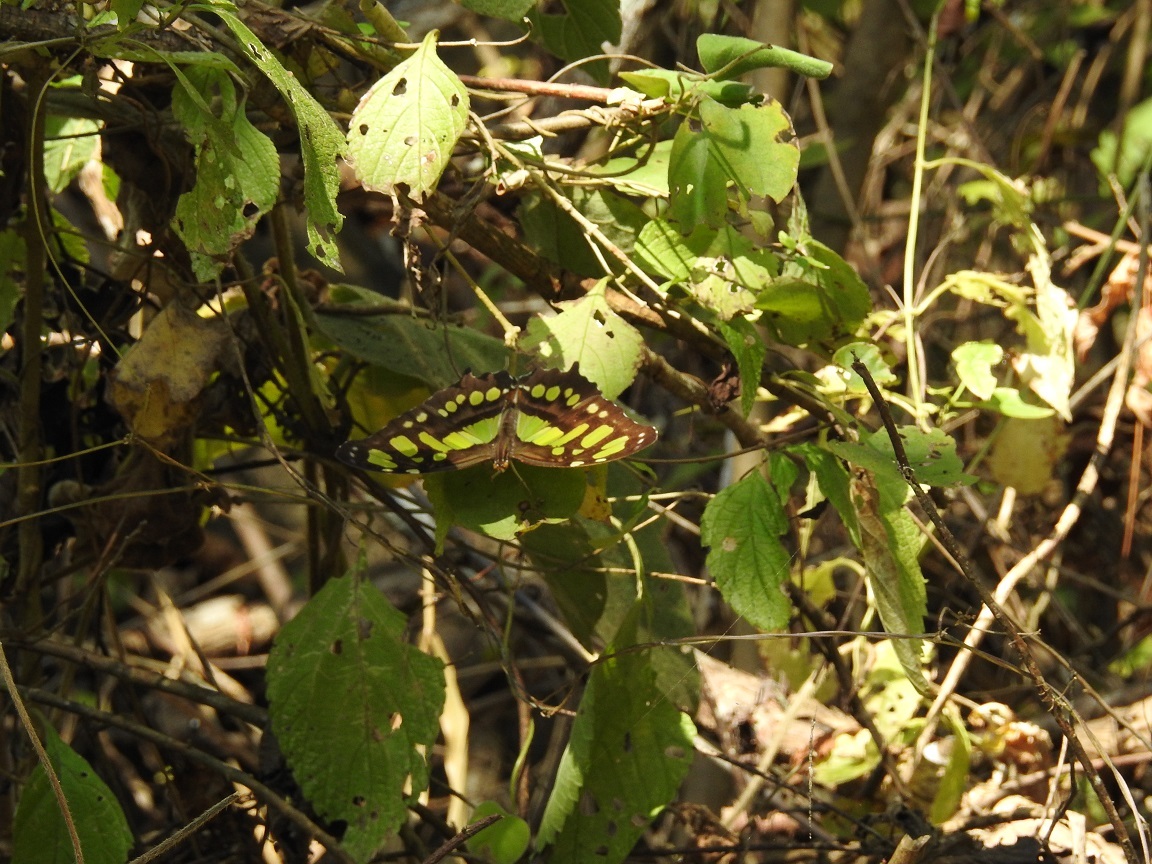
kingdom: Animalia
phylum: Arthropoda
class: Insecta
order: Lepidoptera
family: Nymphalidae
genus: Siproeta
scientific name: Siproeta stelenes
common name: Malachite
